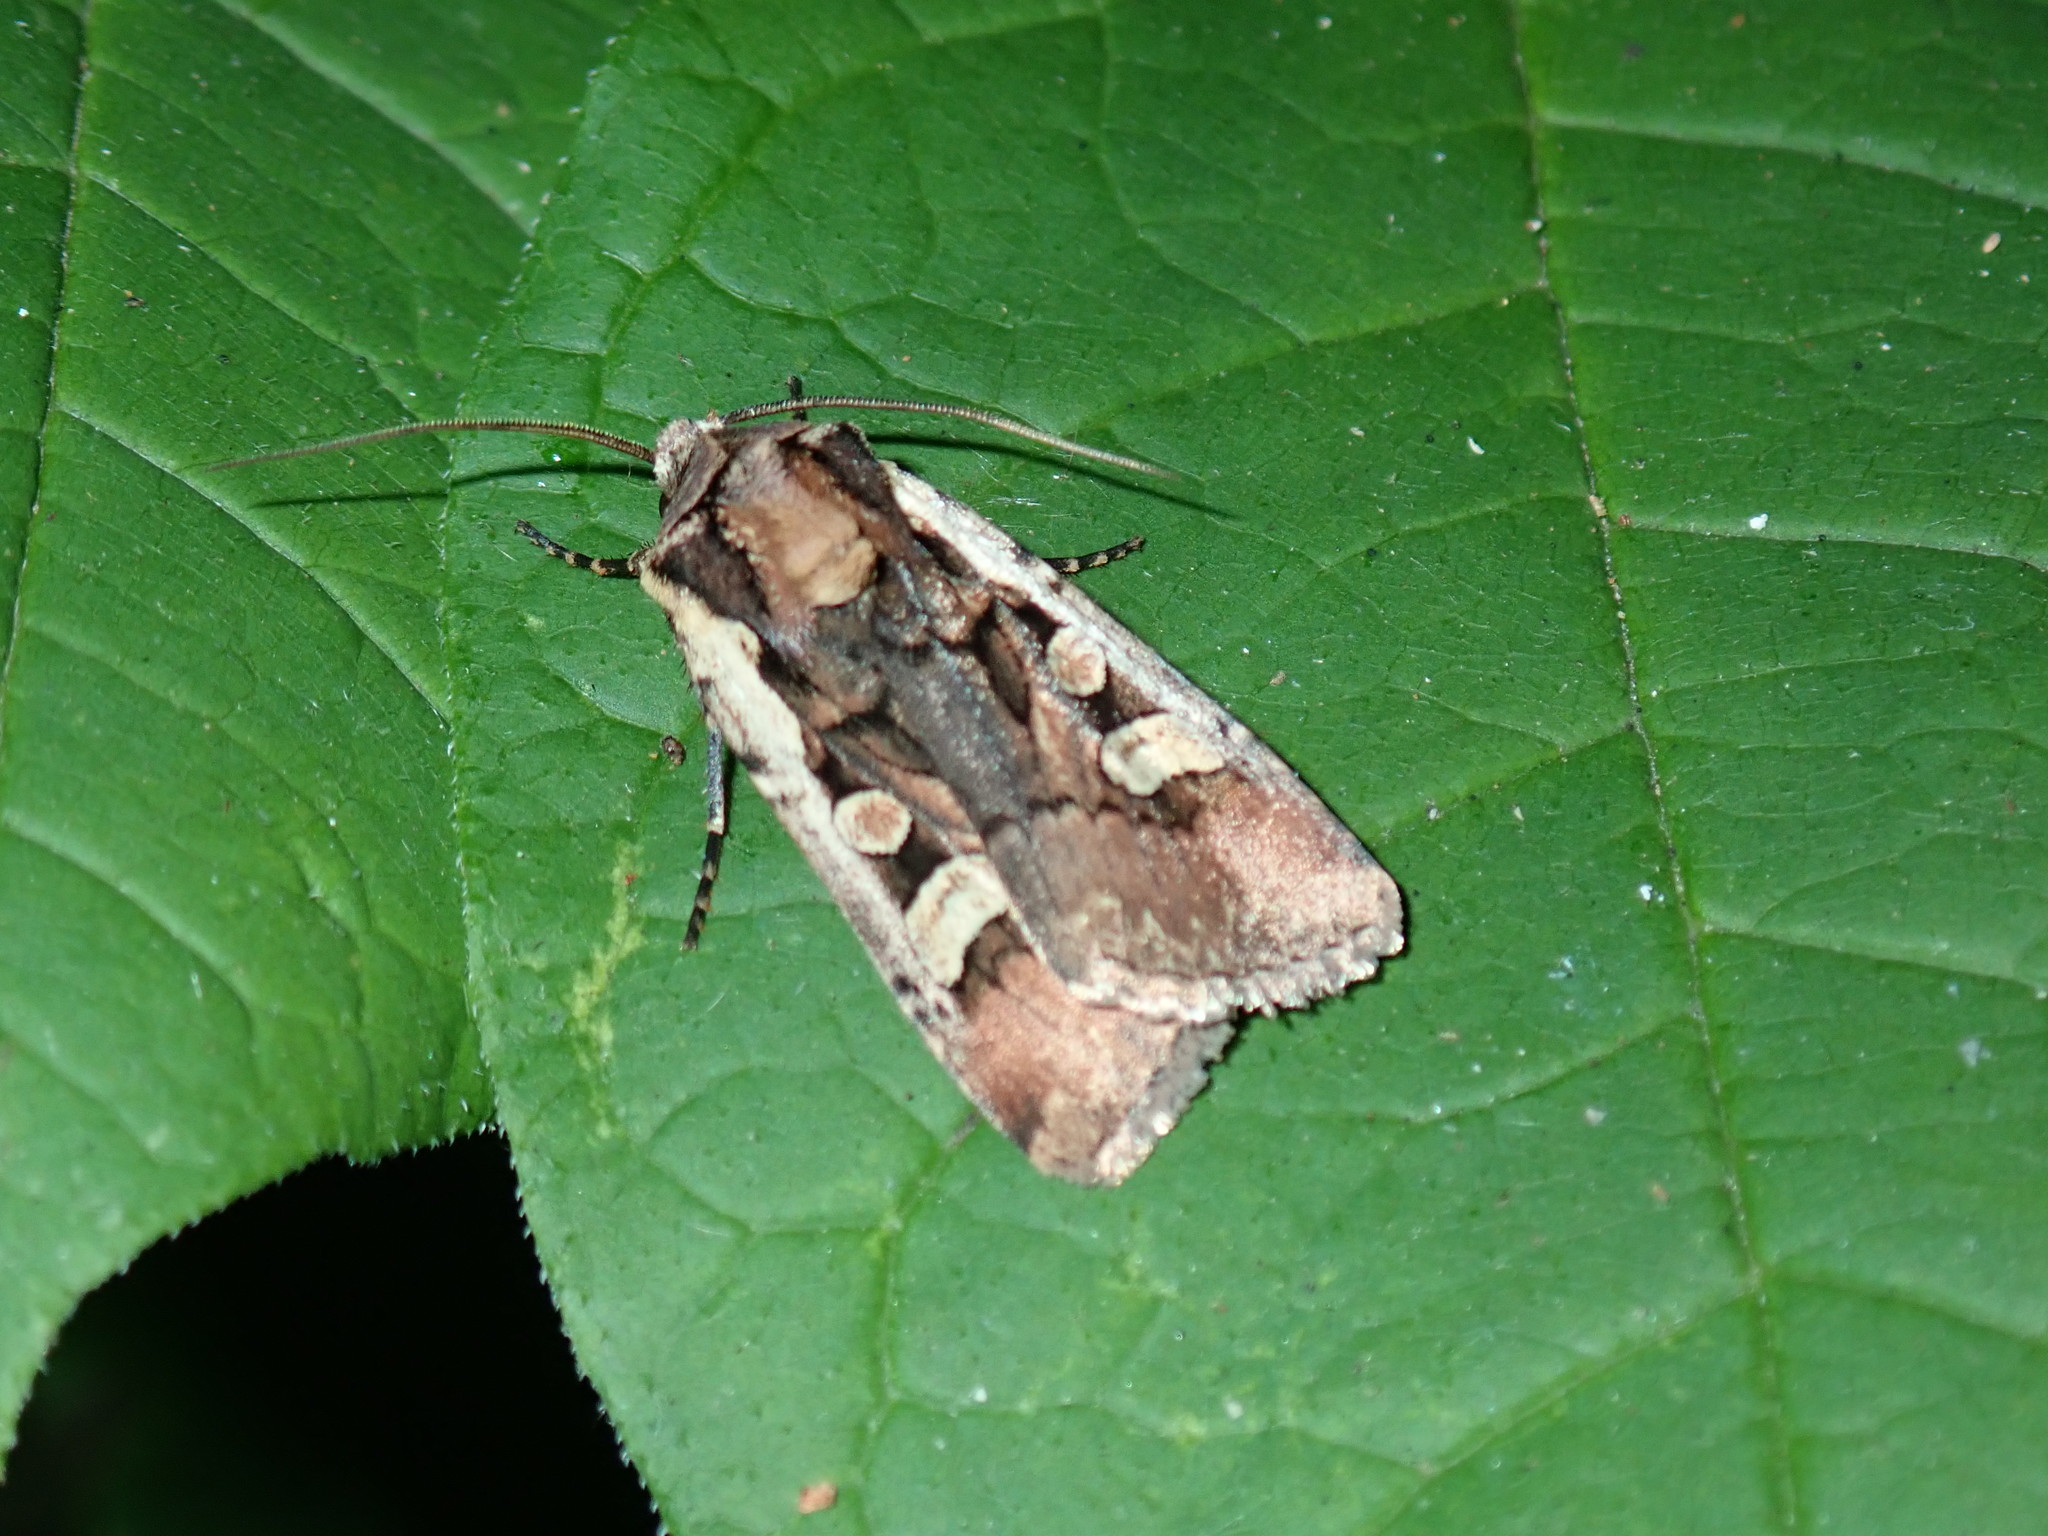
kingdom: Animalia
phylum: Arthropoda
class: Insecta
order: Lepidoptera
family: Noctuidae
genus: Euxoa
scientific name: Euxoa obeliscoides
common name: Obelisk dart moth
